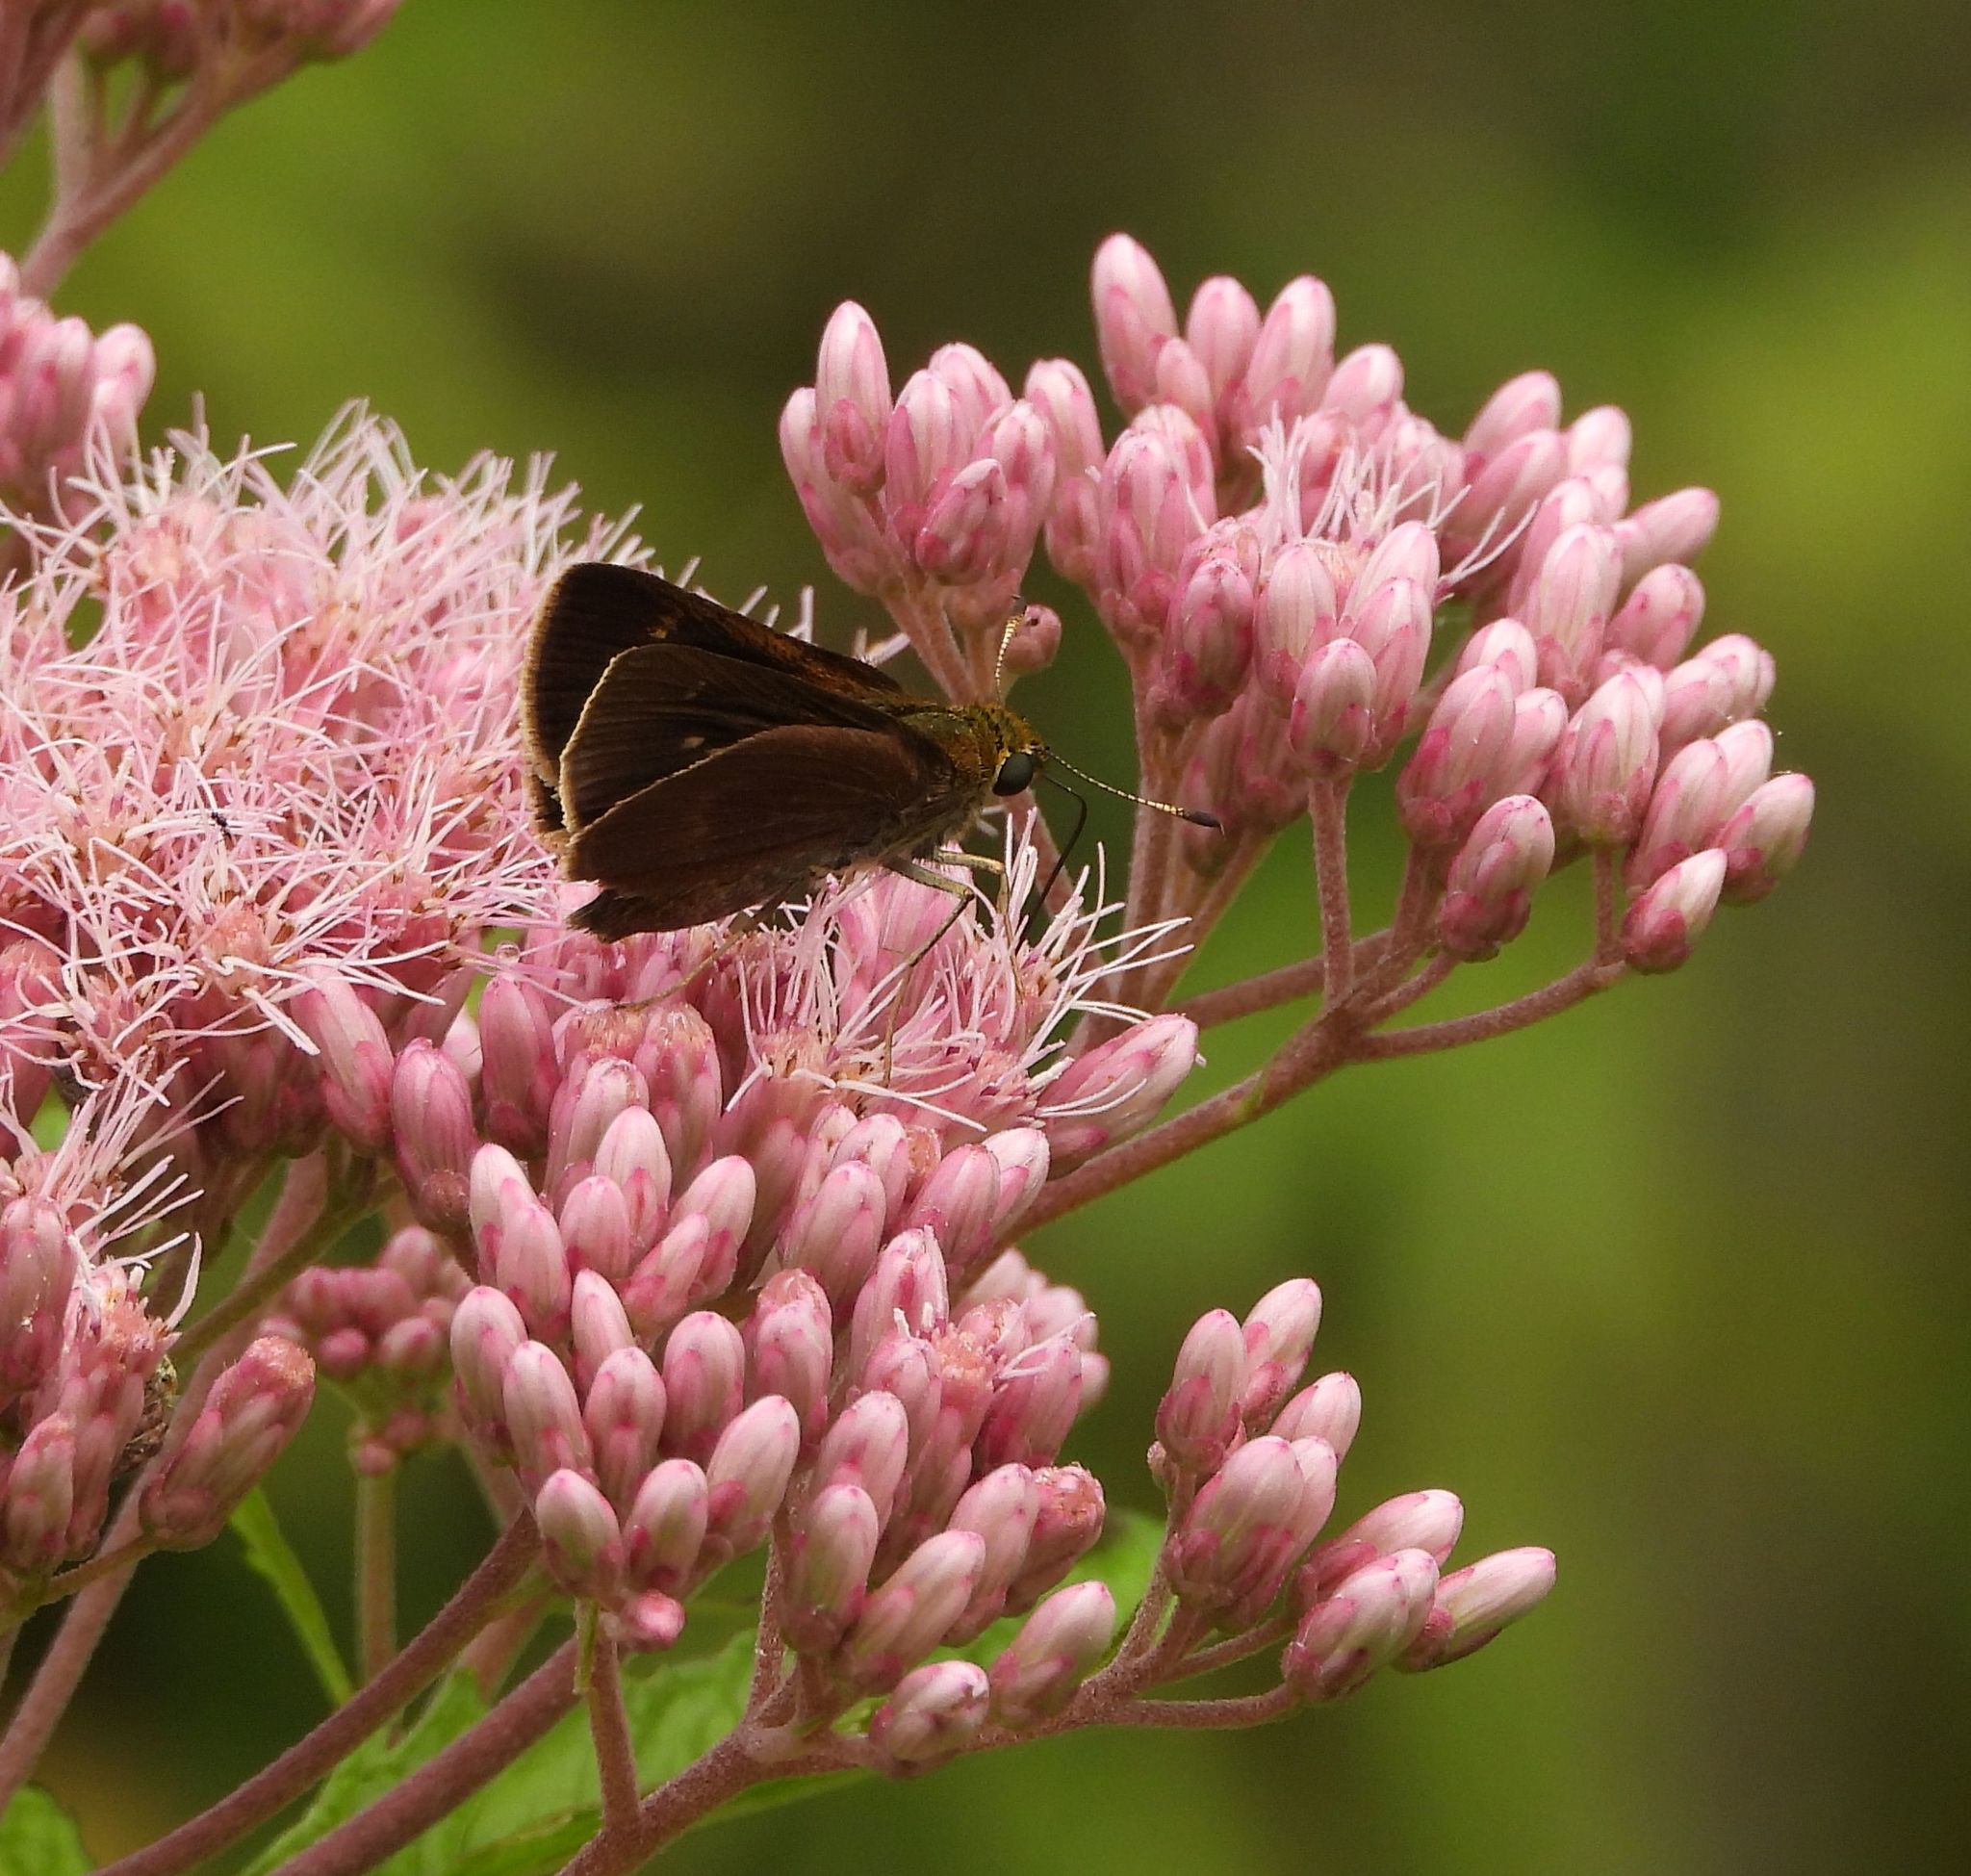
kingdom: Animalia
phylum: Arthropoda
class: Insecta
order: Lepidoptera
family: Hesperiidae
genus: Euphyes
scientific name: Euphyes vestris
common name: Dun skipper
